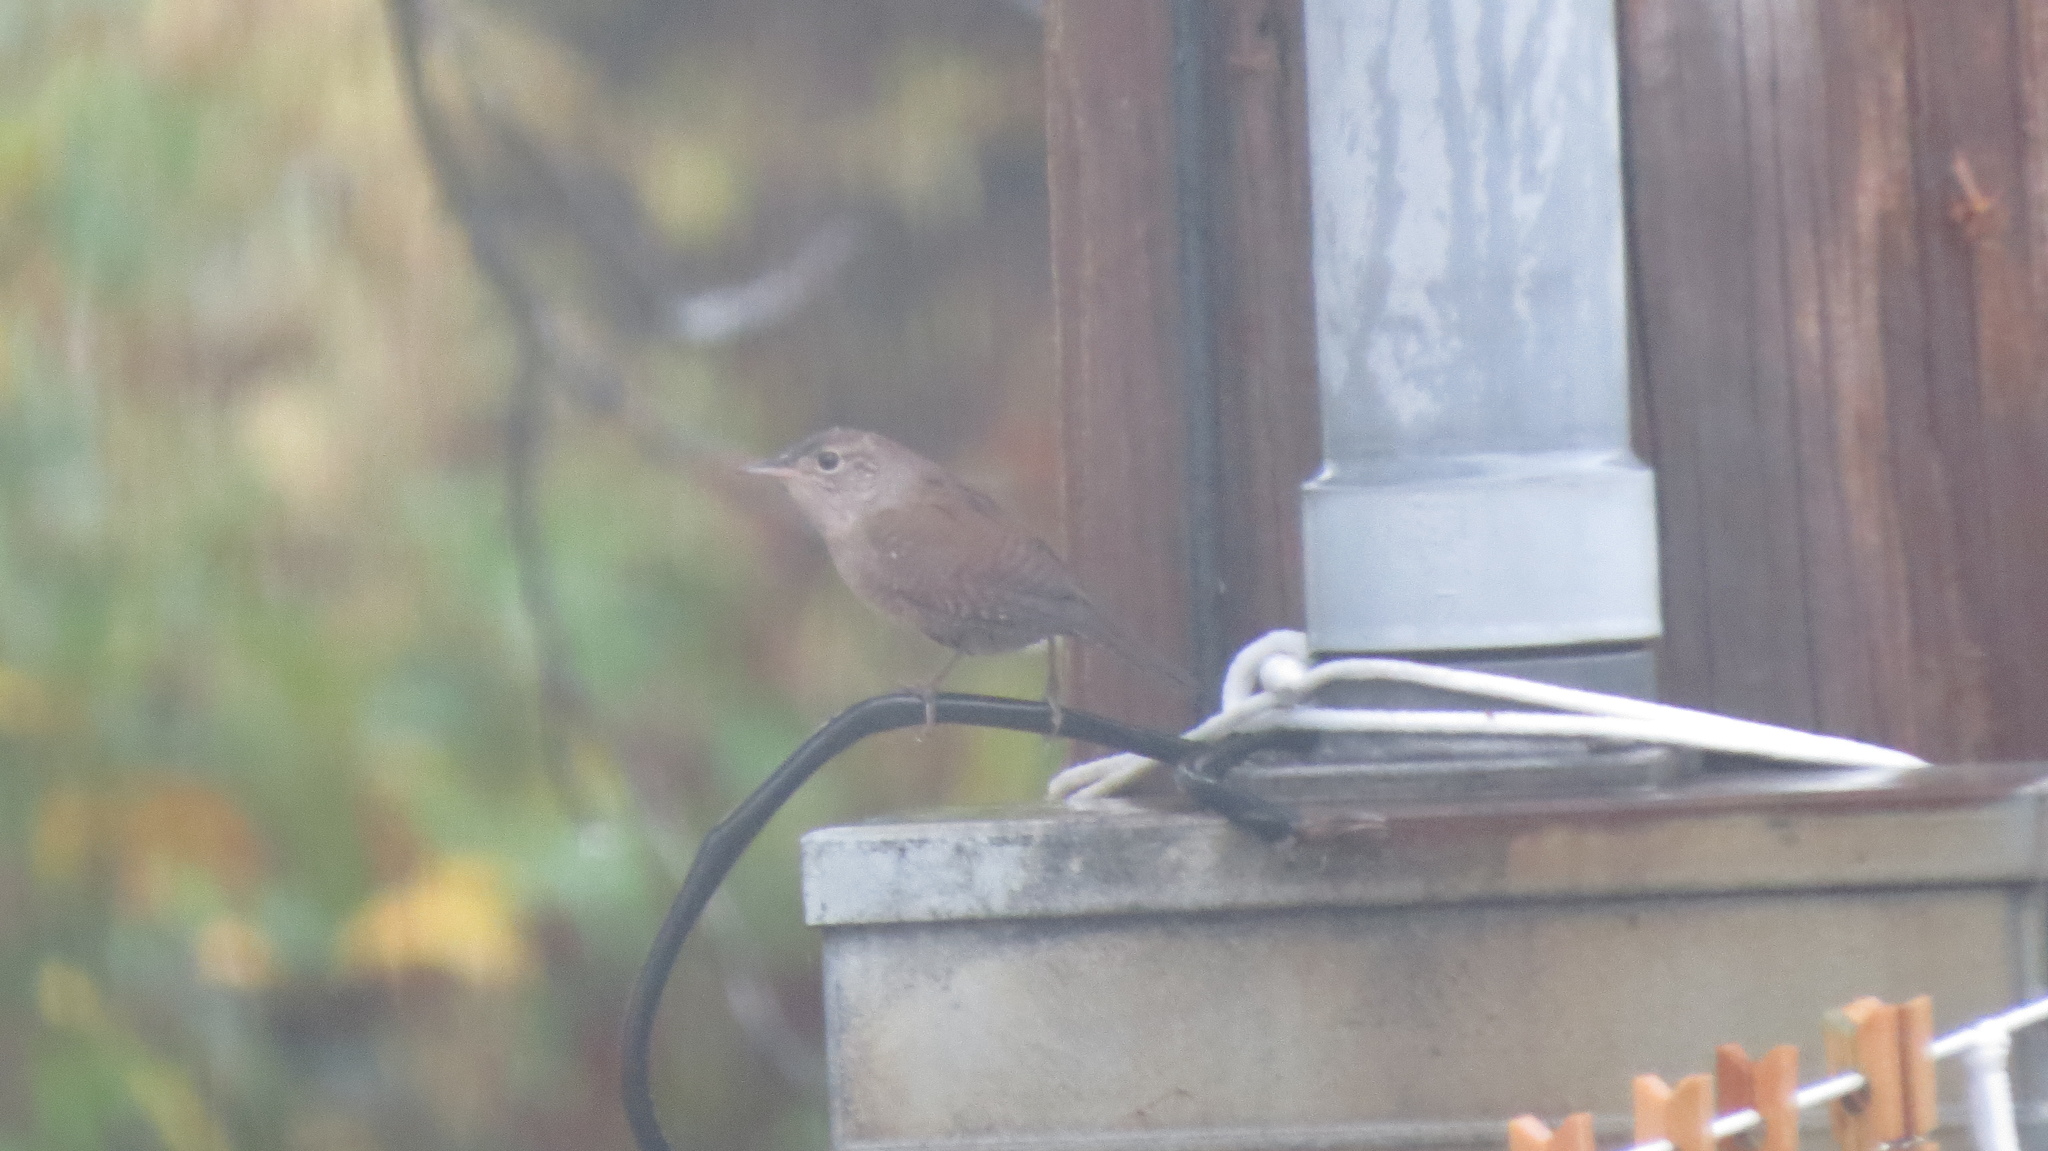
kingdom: Animalia
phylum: Chordata
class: Aves
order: Passeriformes
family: Troglodytidae
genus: Troglodytes
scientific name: Troglodytes aedon
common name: House wren
